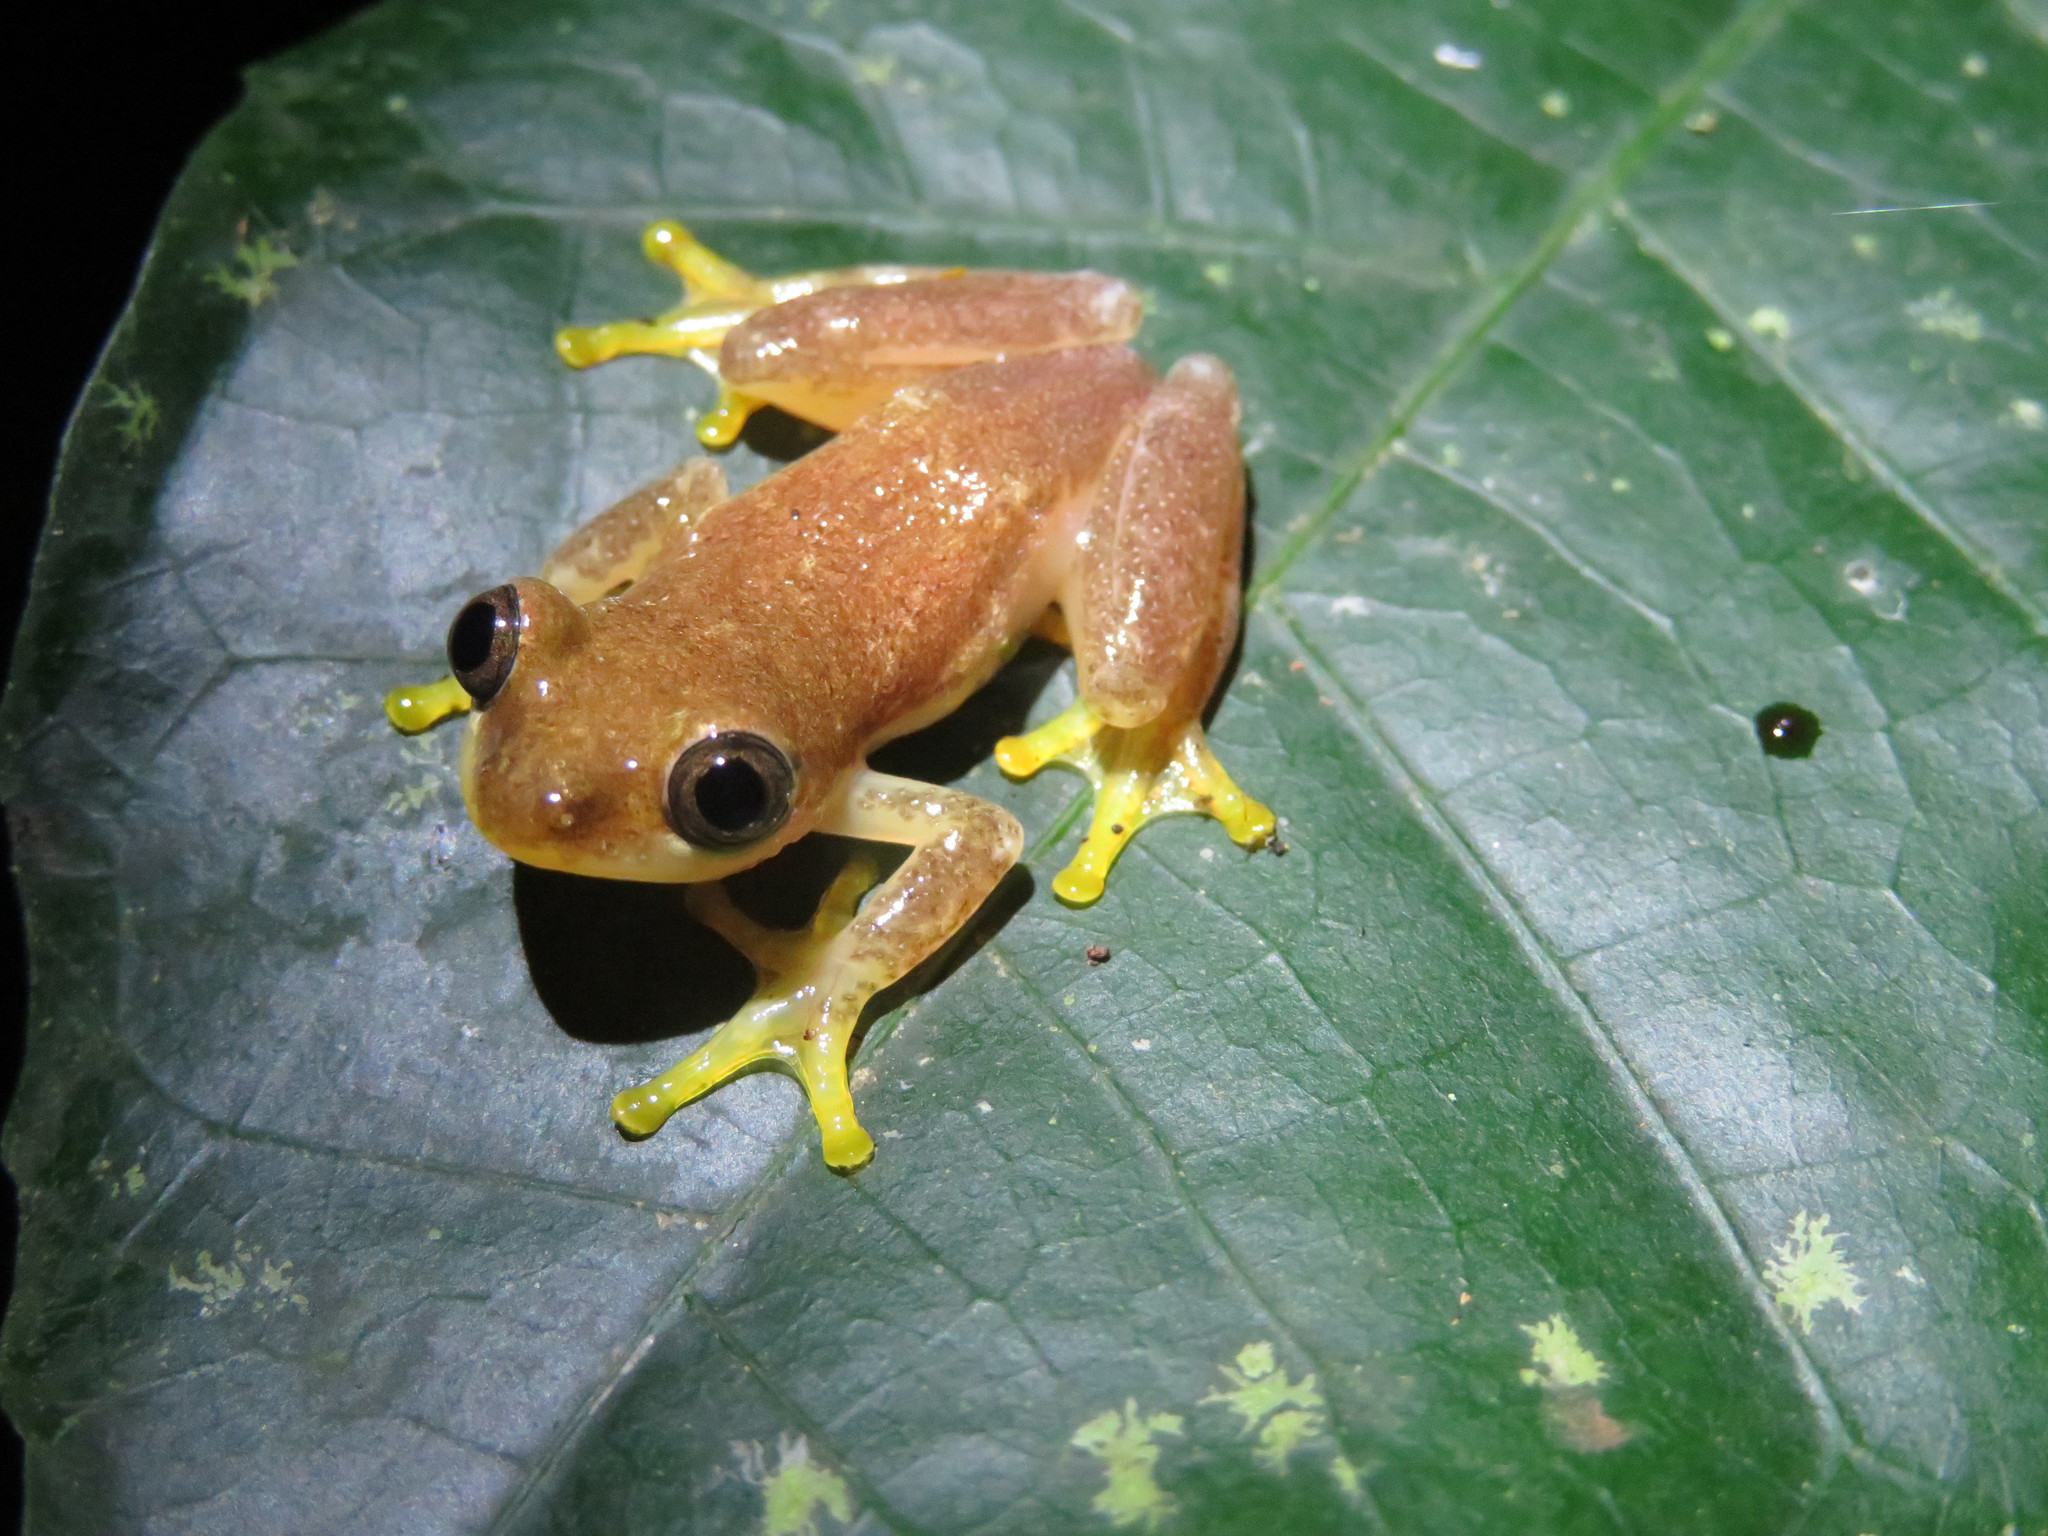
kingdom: Animalia
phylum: Chordata
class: Amphibia
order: Anura
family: Hyperoliidae
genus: Afrixalus
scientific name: Afrixalus dorsimaculatus
